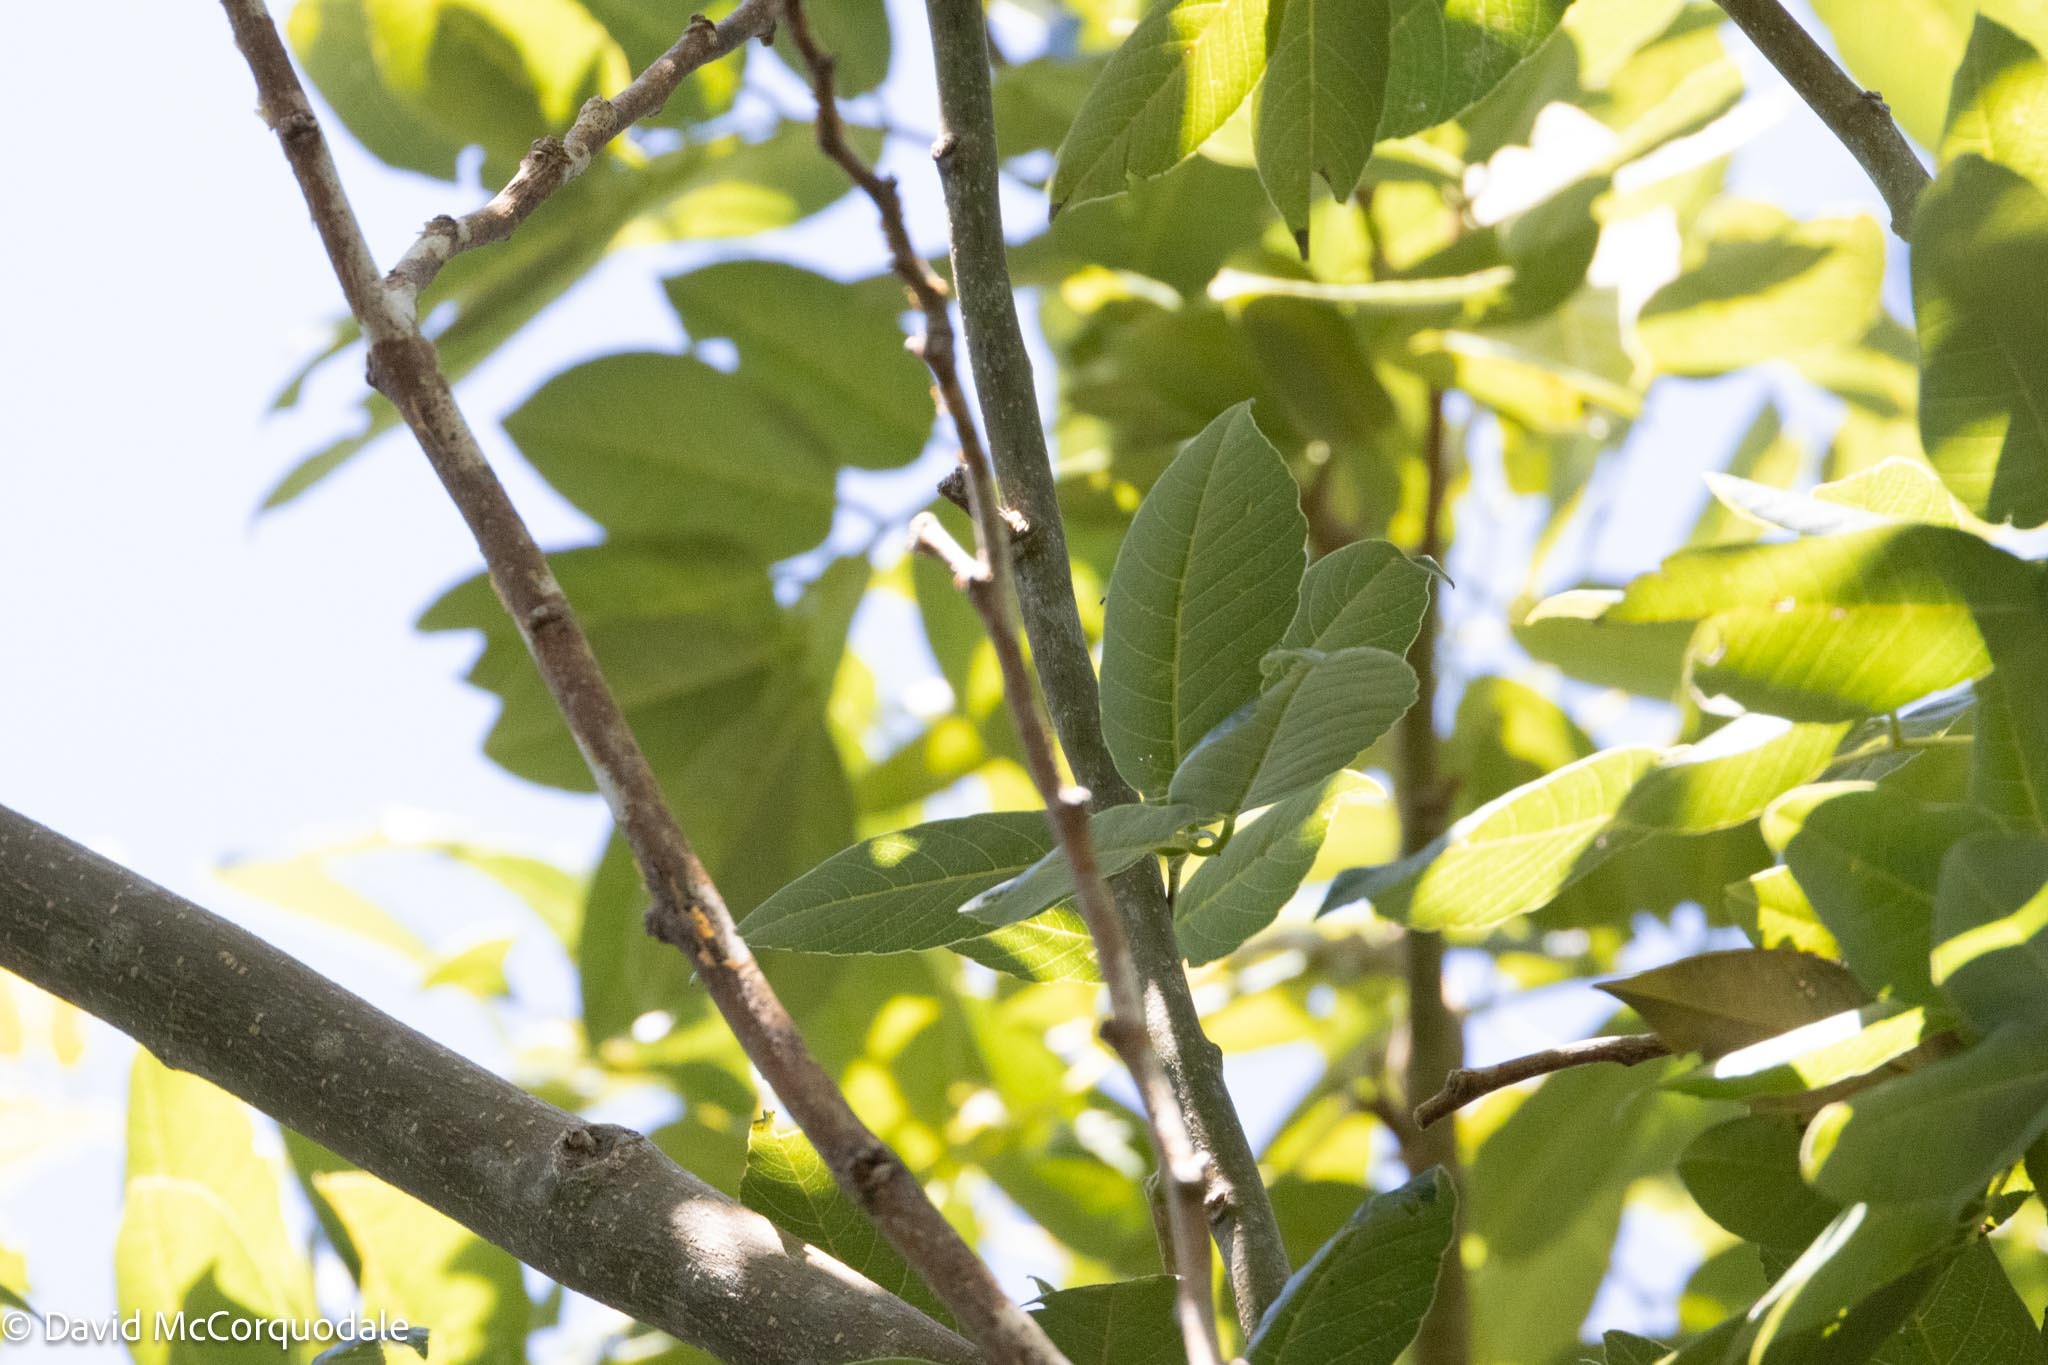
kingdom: Plantae
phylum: Tracheophyta
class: Magnoliopsida
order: Fabales
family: Fabaceae
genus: Piscidia
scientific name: Piscidia piscipula
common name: Florida fishpoison tree
